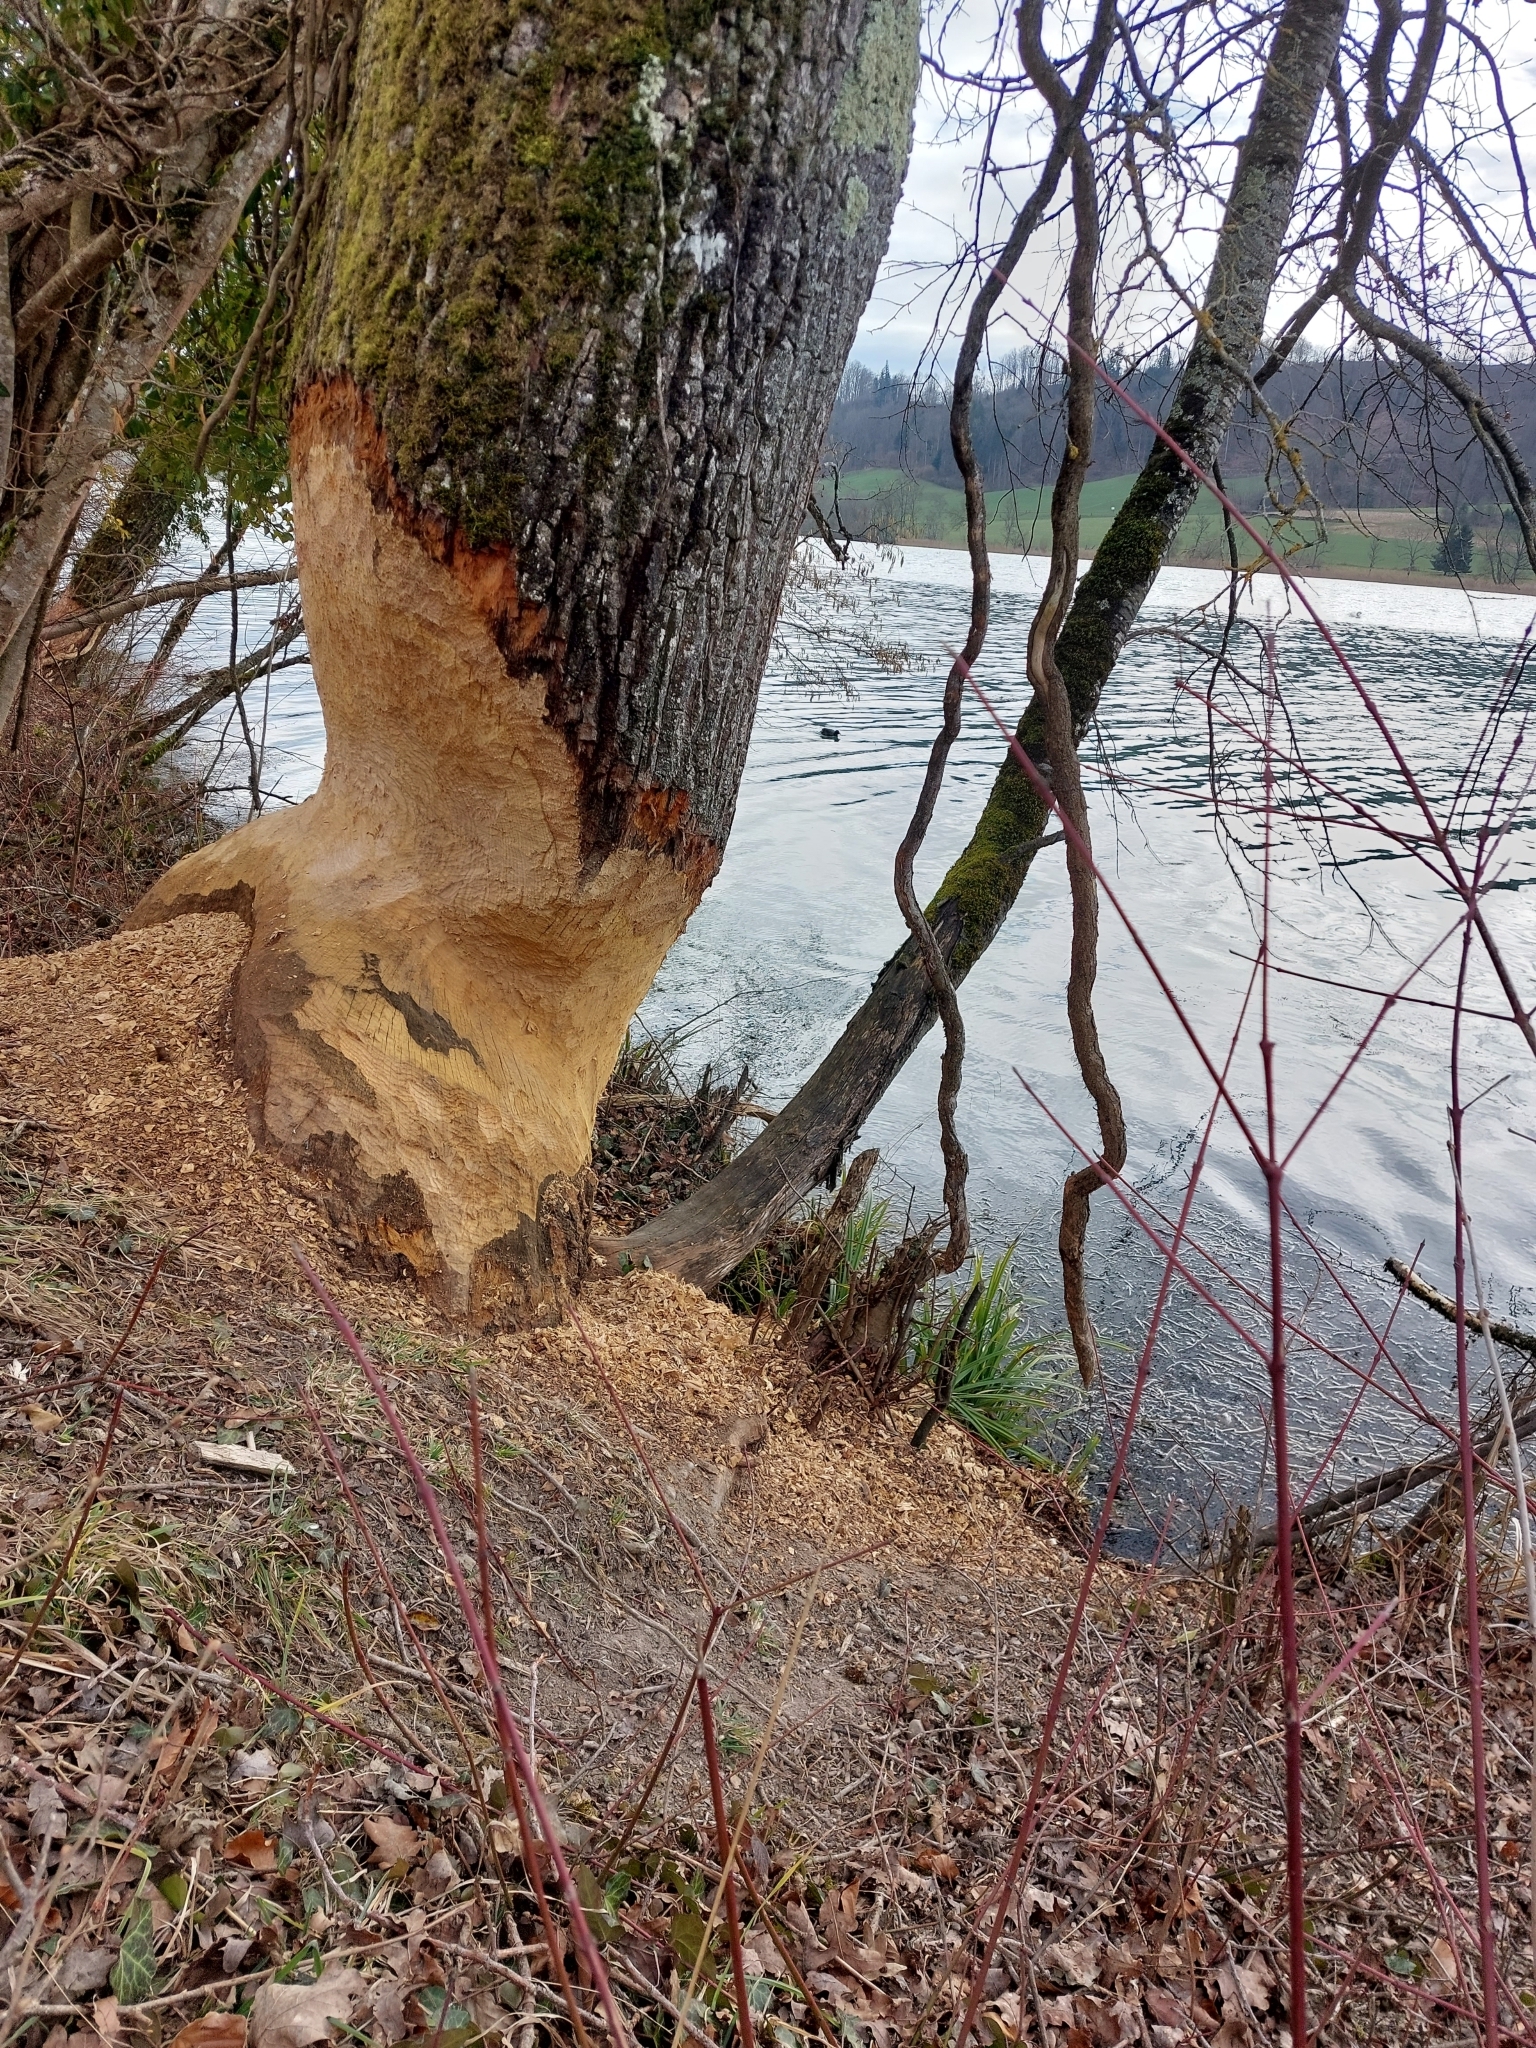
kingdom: Animalia
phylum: Chordata
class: Mammalia
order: Rodentia
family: Castoridae
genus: Castor
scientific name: Castor fiber
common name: Eurasian beaver
